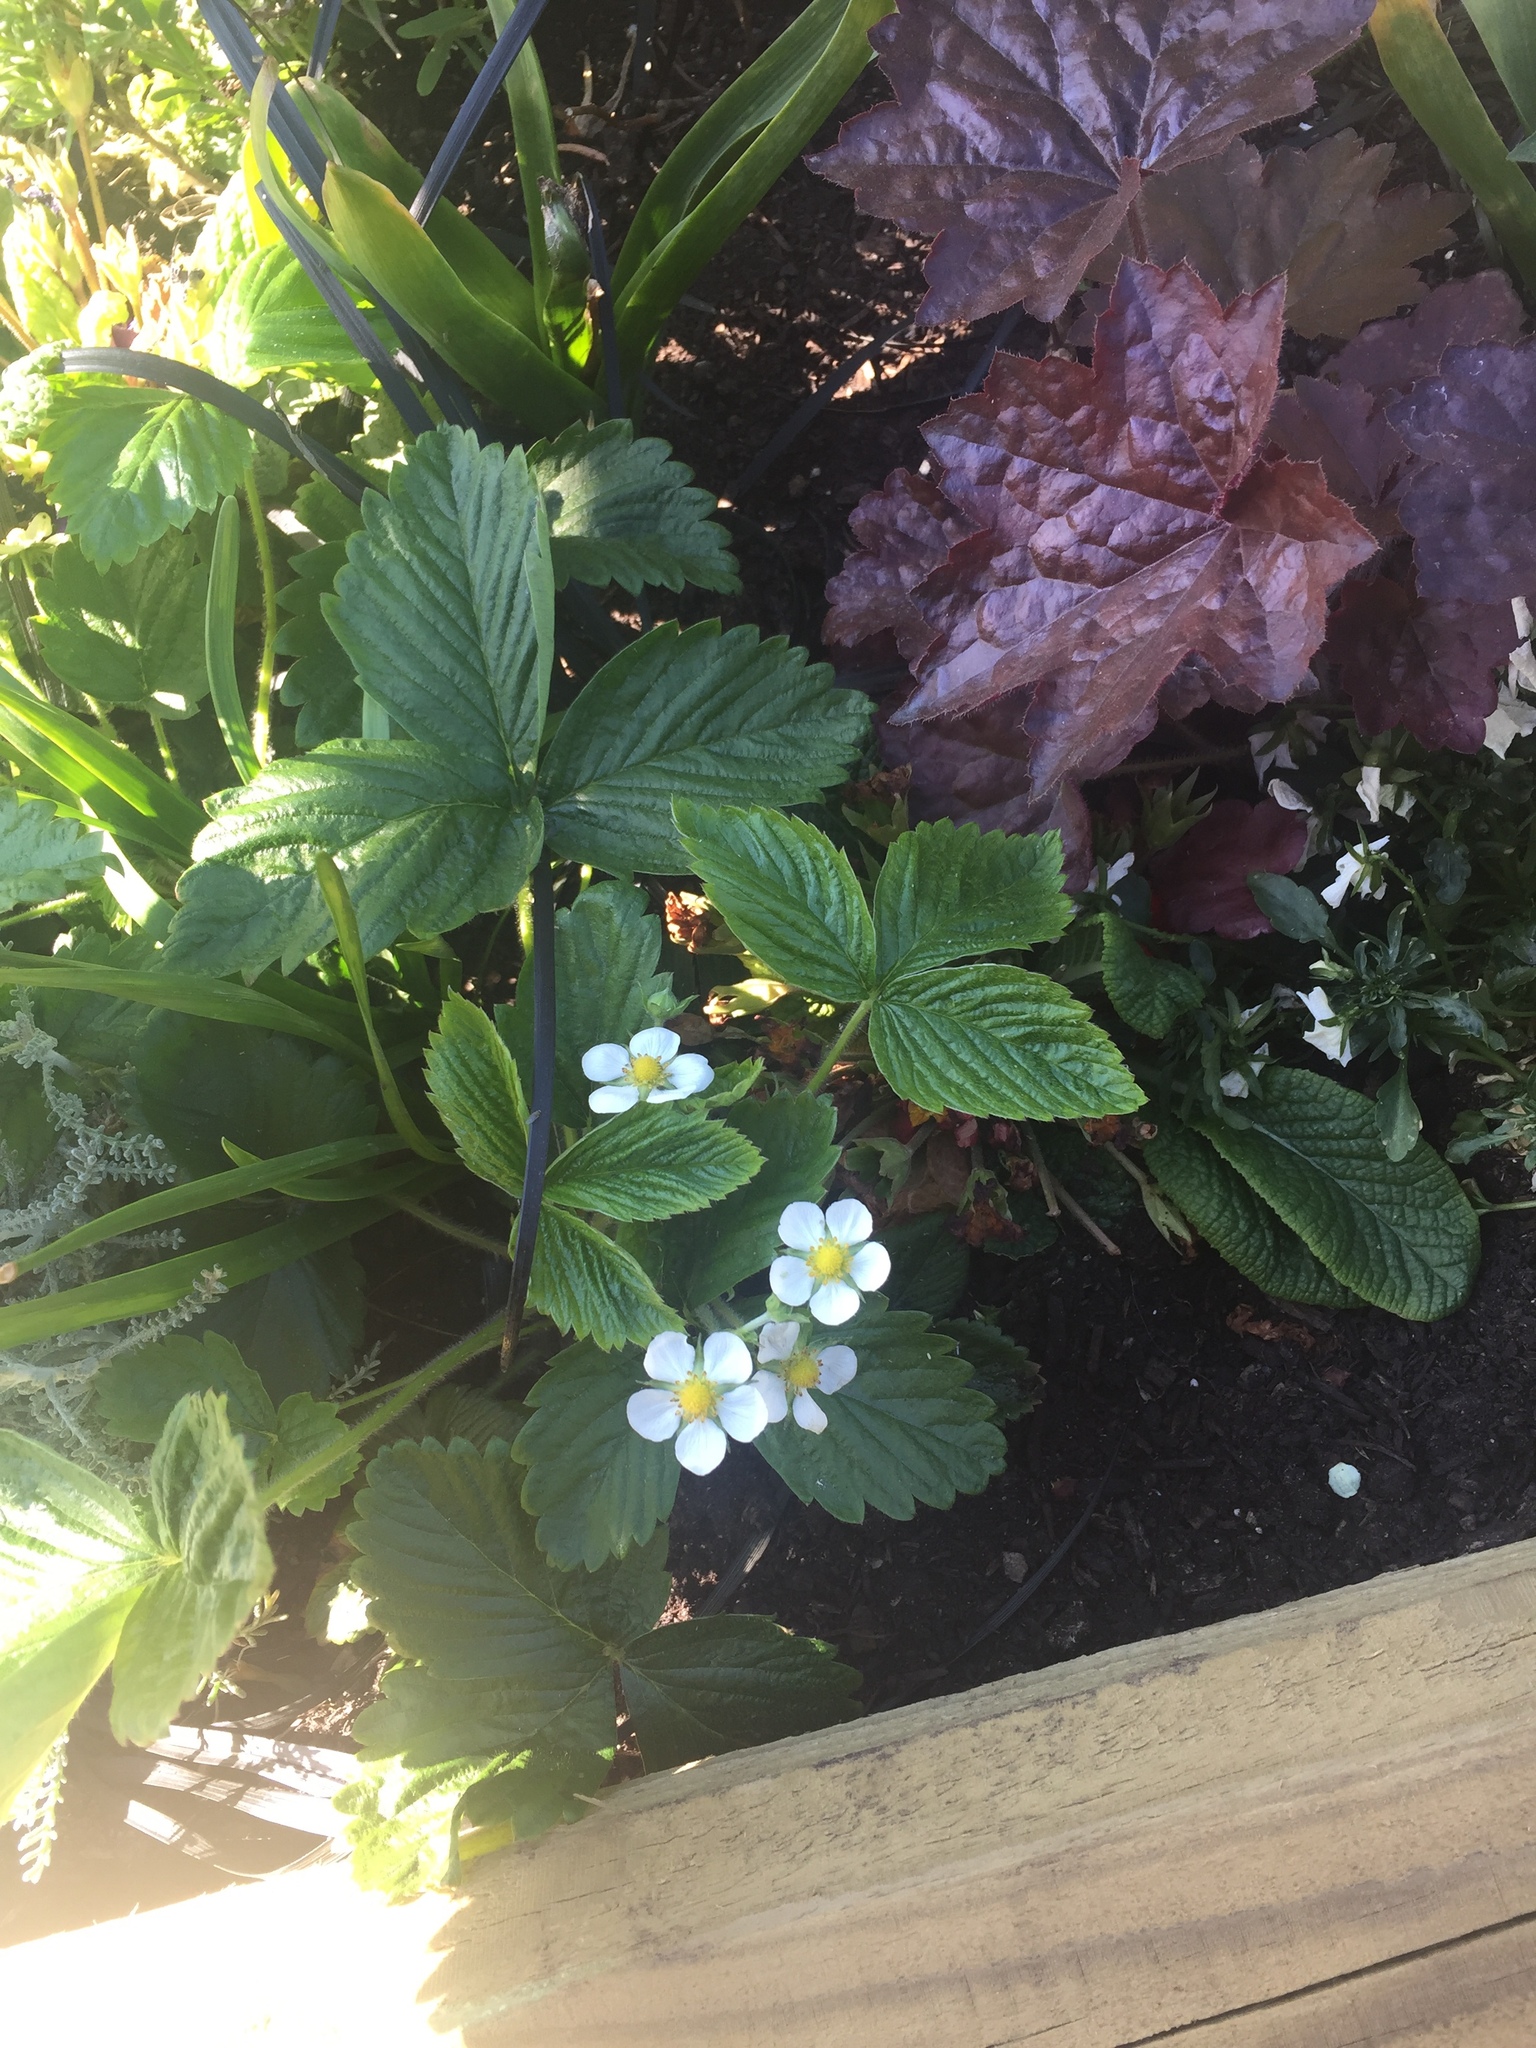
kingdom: Plantae
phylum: Tracheophyta
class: Magnoliopsida
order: Rosales
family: Rosaceae
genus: Fragaria
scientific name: Fragaria vesca
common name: Wild strawberry
